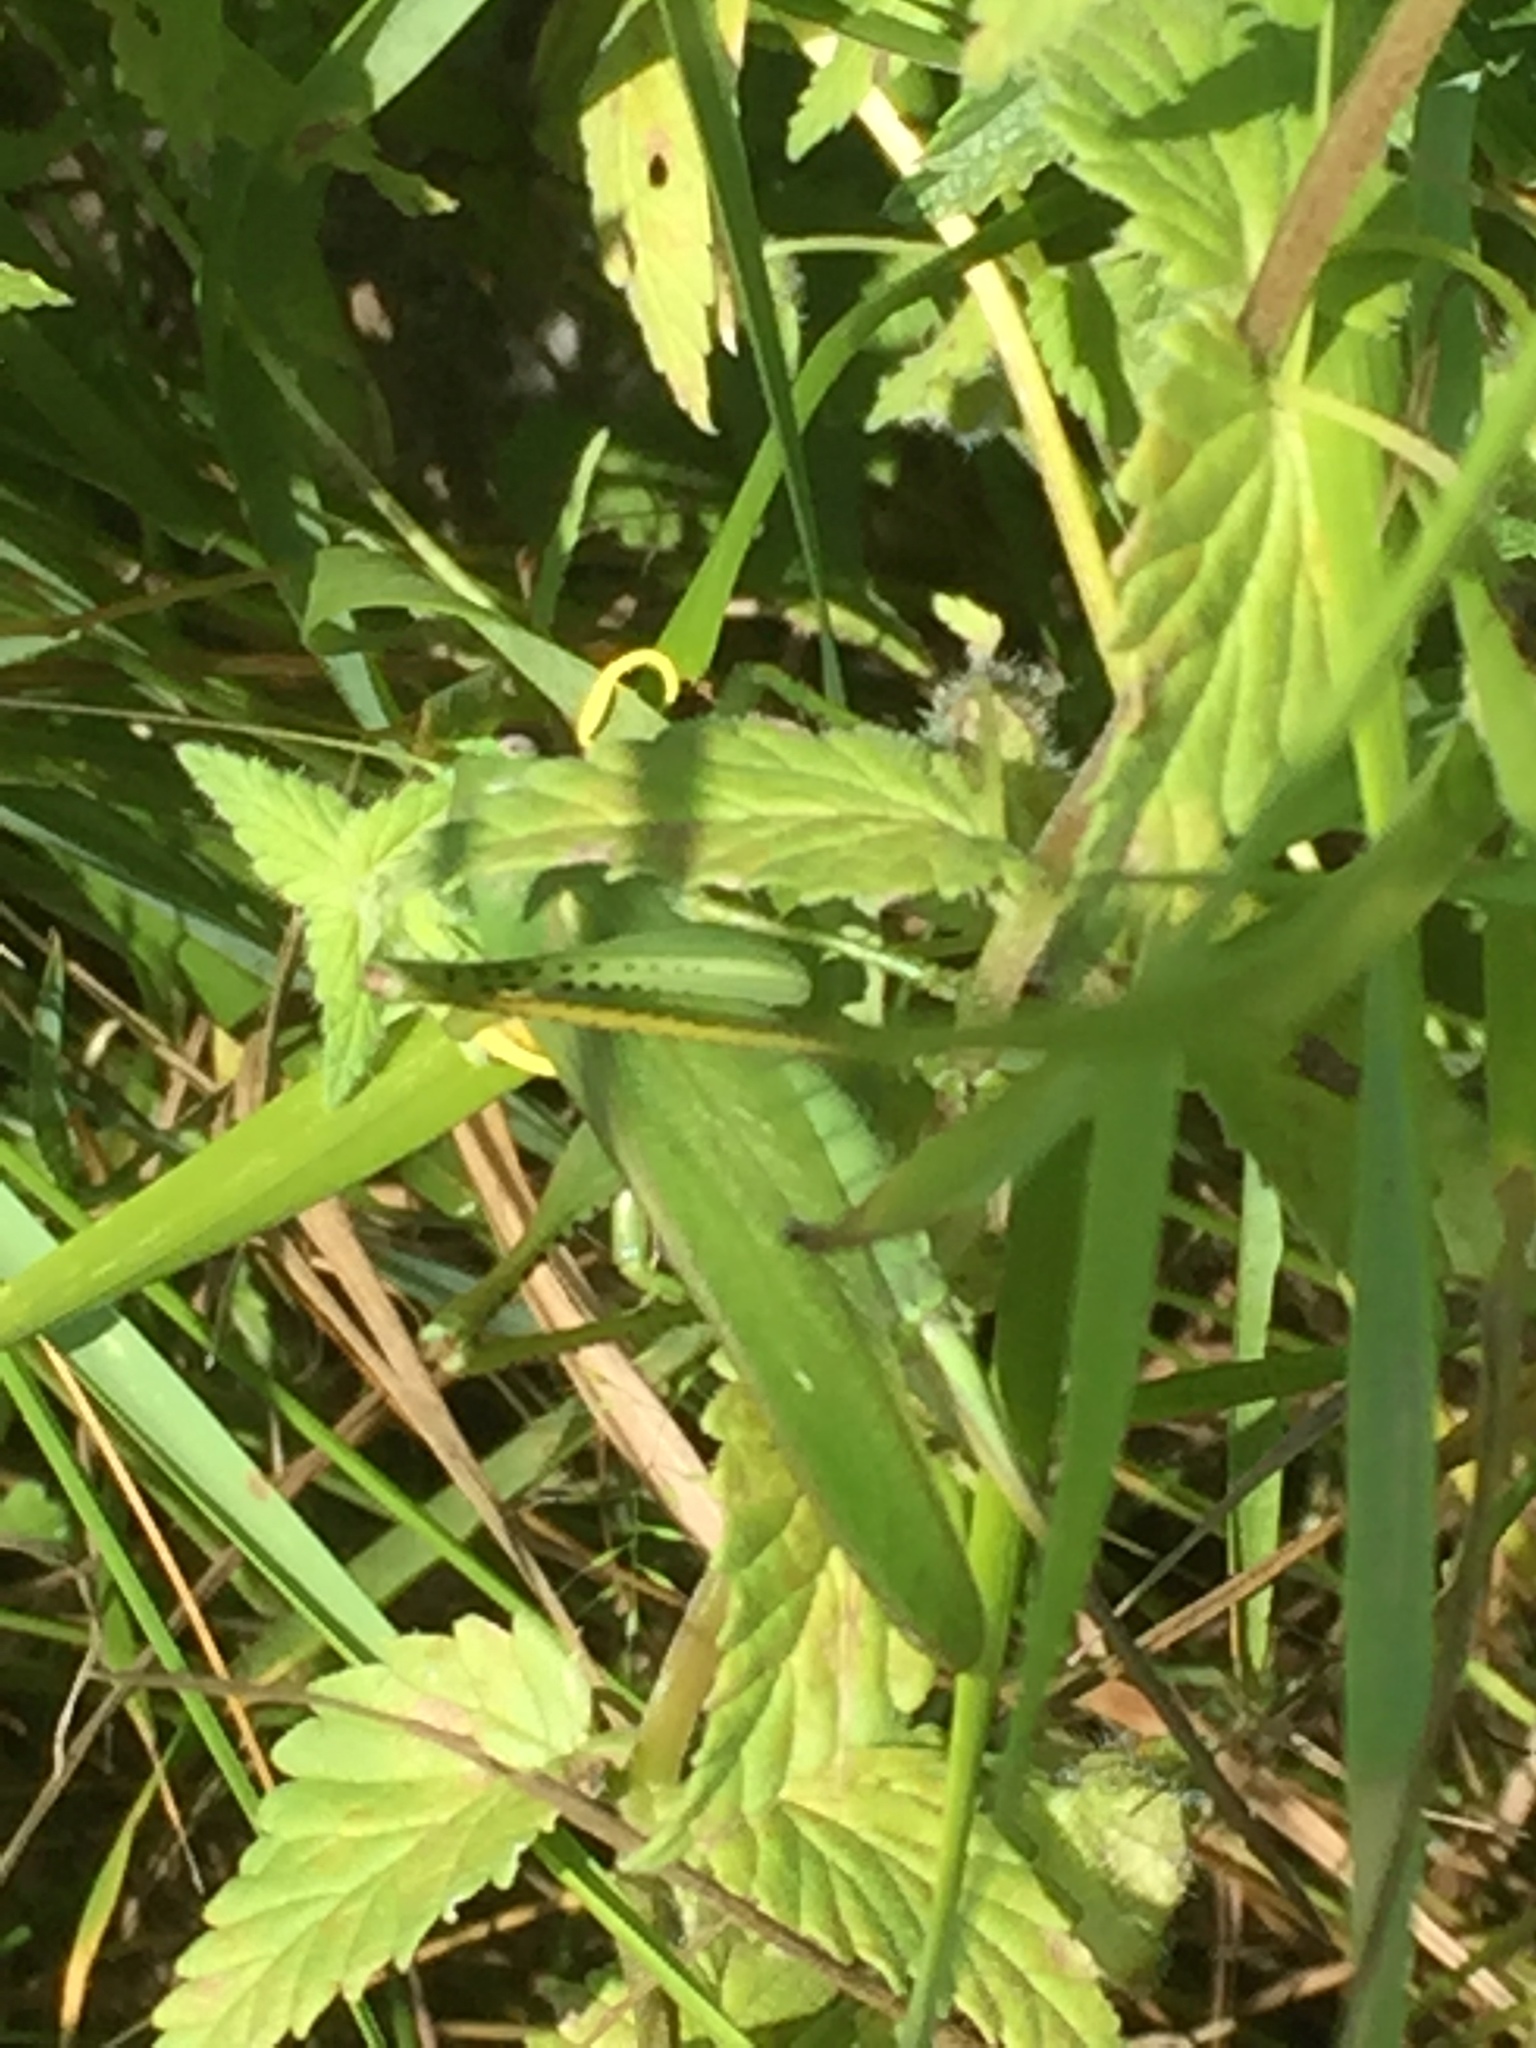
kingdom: Animalia
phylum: Arthropoda
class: Insecta
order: Orthoptera
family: Tettigoniidae
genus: Tettigonia
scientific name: Tettigonia caudata
